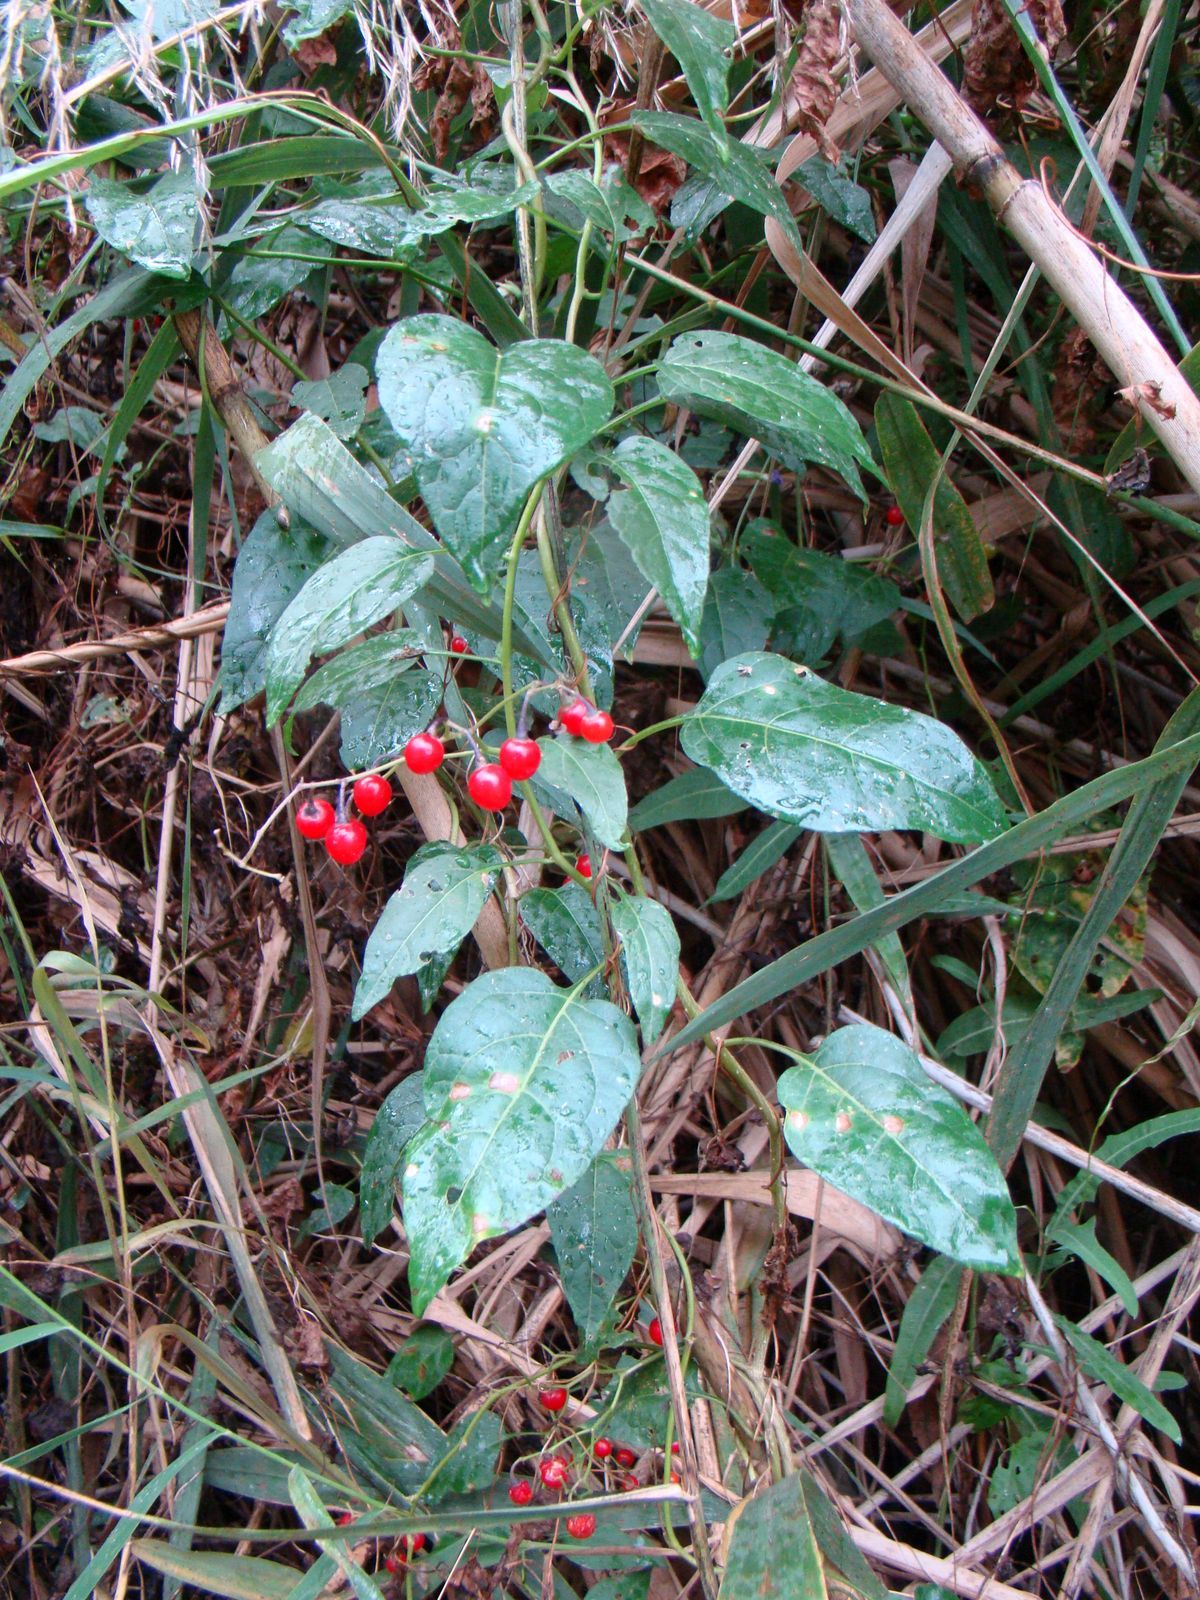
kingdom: Plantae
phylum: Tracheophyta
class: Magnoliopsida
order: Solanales
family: Solanaceae
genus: Solanum
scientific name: Solanum dulcamara
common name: Climbing nightshade
